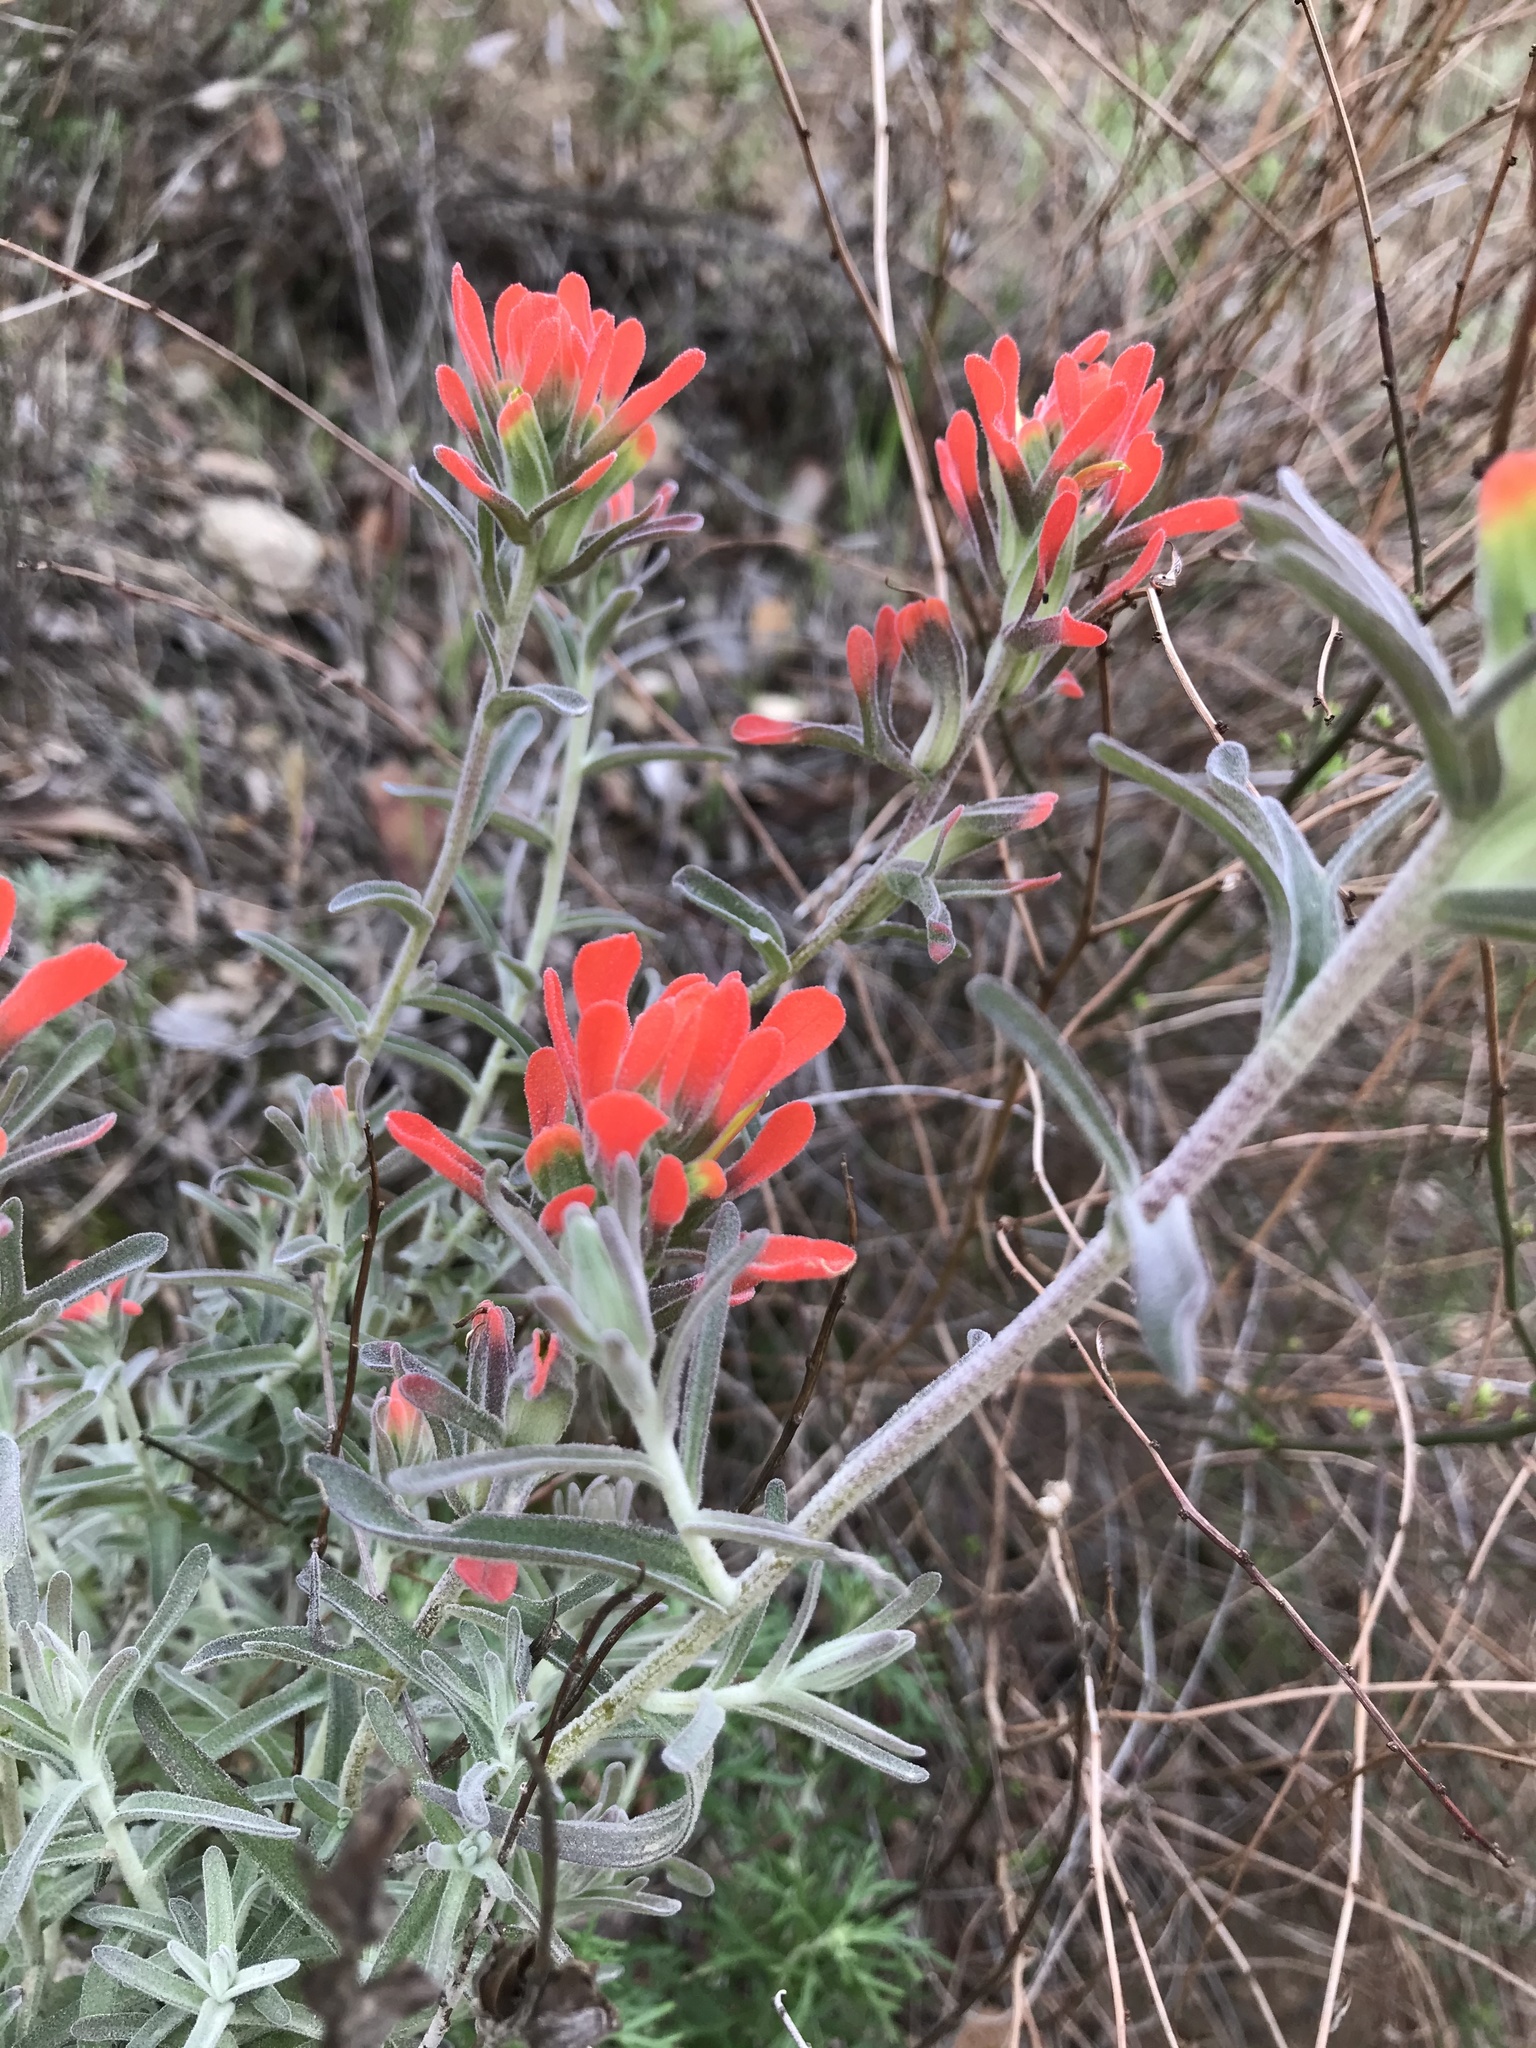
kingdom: Plantae
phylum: Tracheophyta
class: Magnoliopsida
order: Lamiales
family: Orobanchaceae
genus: Castilleja
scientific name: Castilleja foliolosa
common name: Woolly indian paintbrush
